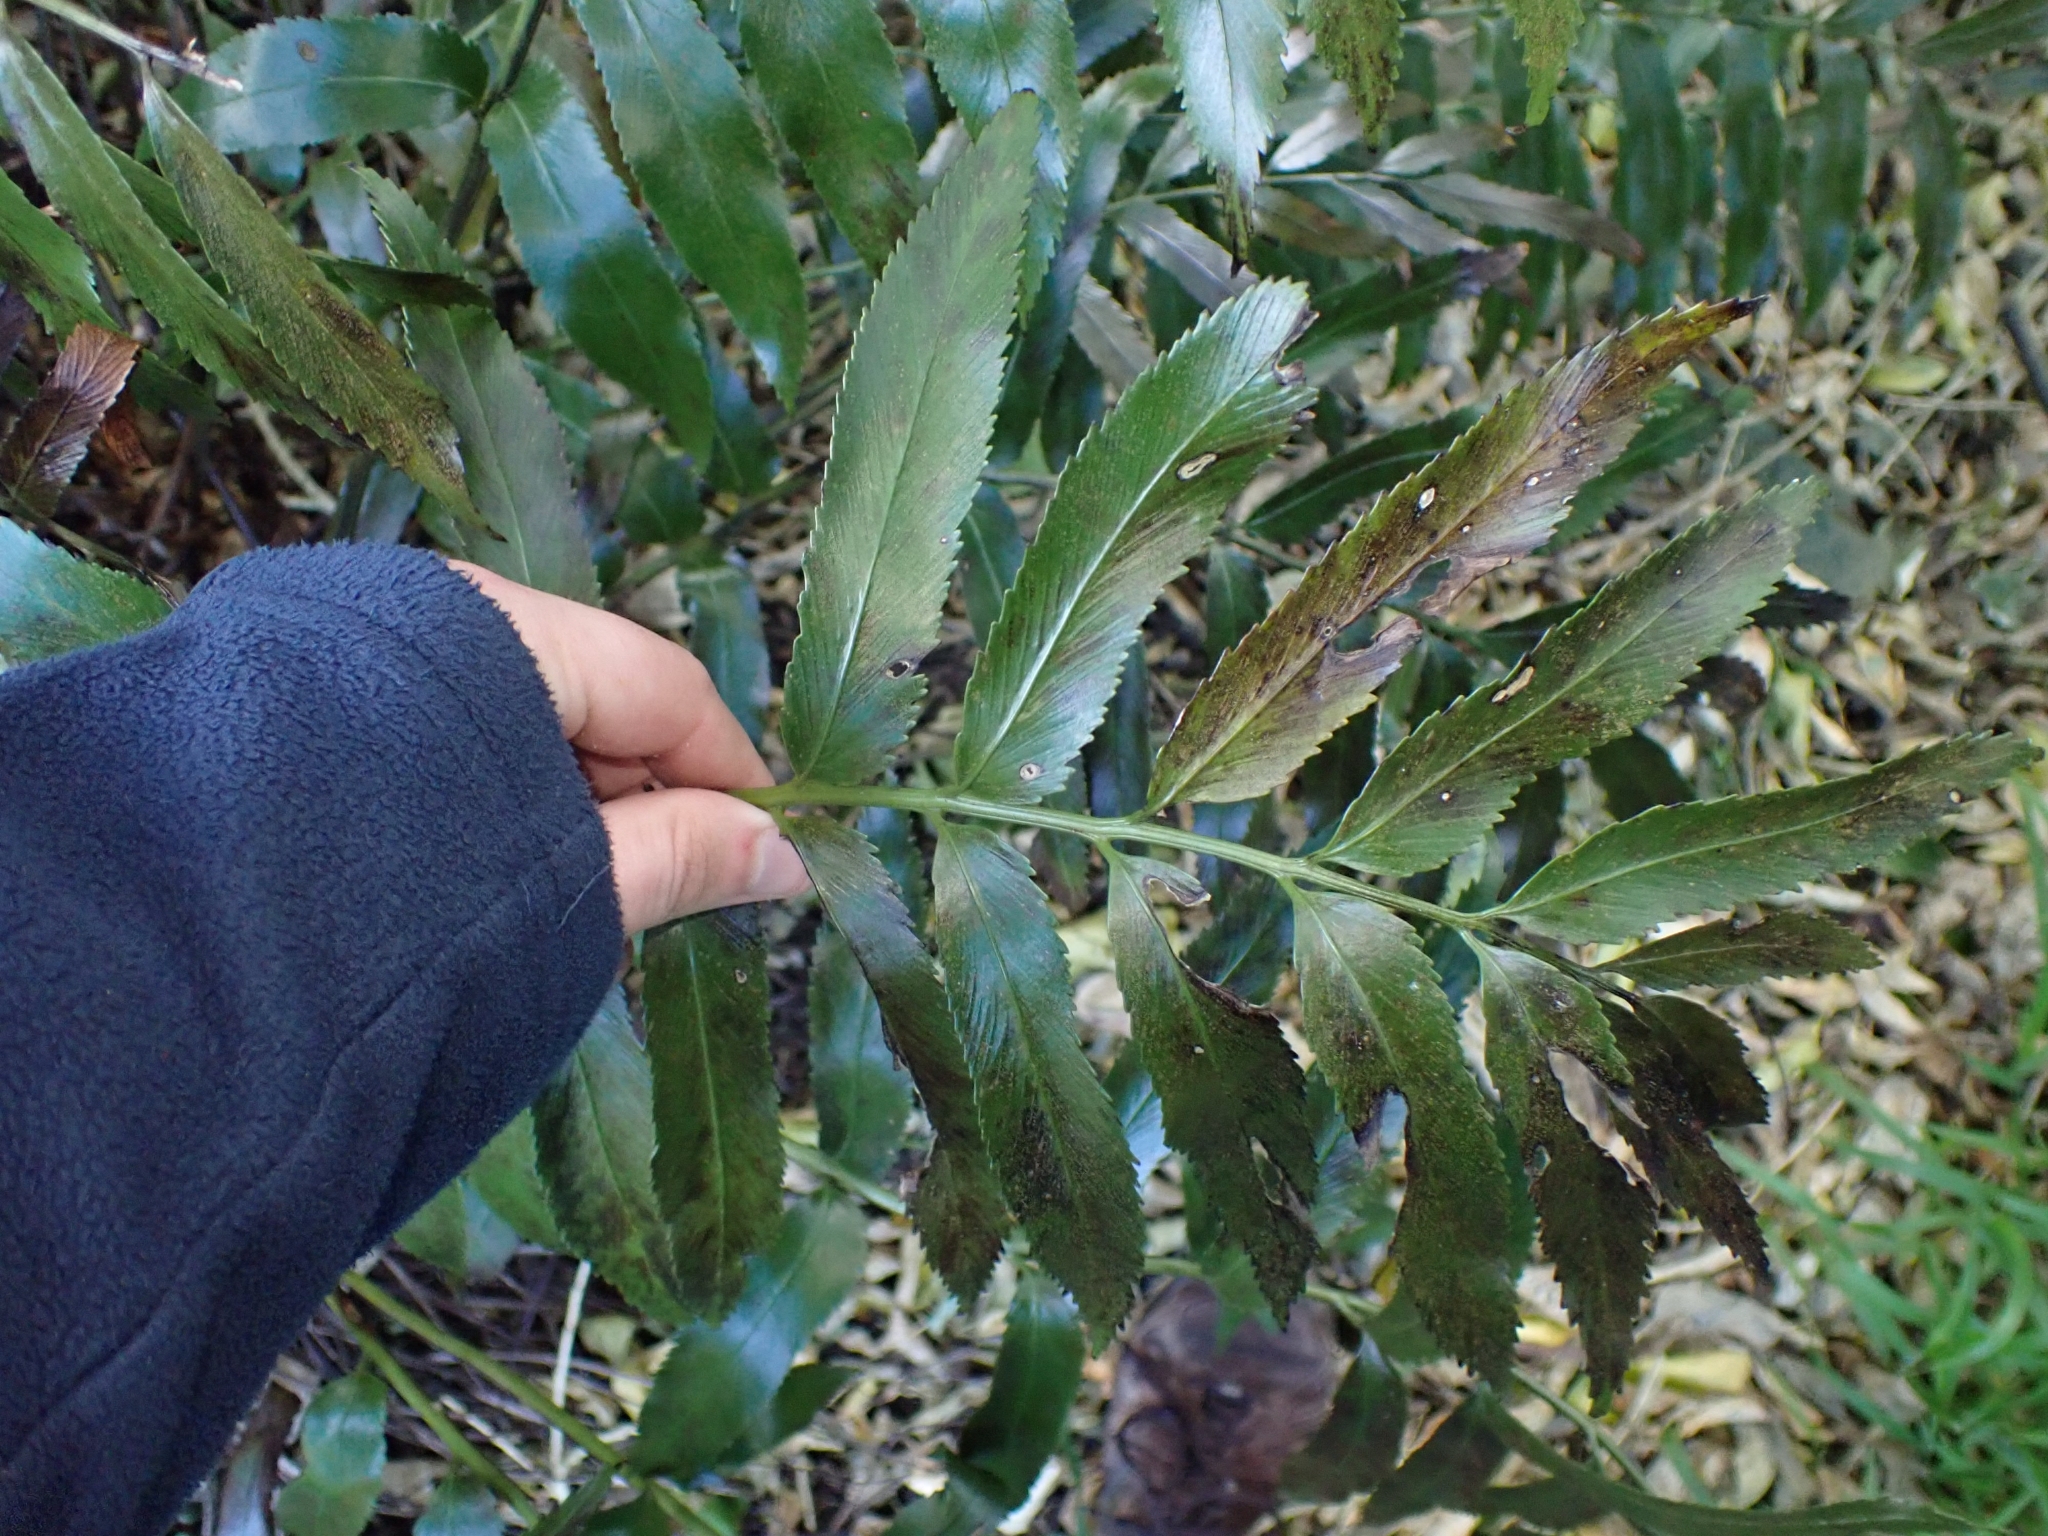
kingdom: Plantae
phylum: Tracheophyta
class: Polypodiopsida
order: Polypodiales
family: Aspleniaceae
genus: Asplenium
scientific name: Asplenium oblongifolium
